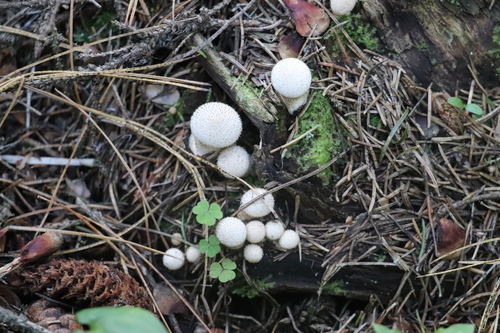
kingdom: Fungi
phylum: Basidiomycota
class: Agaricomycetes
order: Agaricales
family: Lycoperdaceae
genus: Lycoperdon
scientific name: Lycoperdon perlatum
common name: Common puffball
